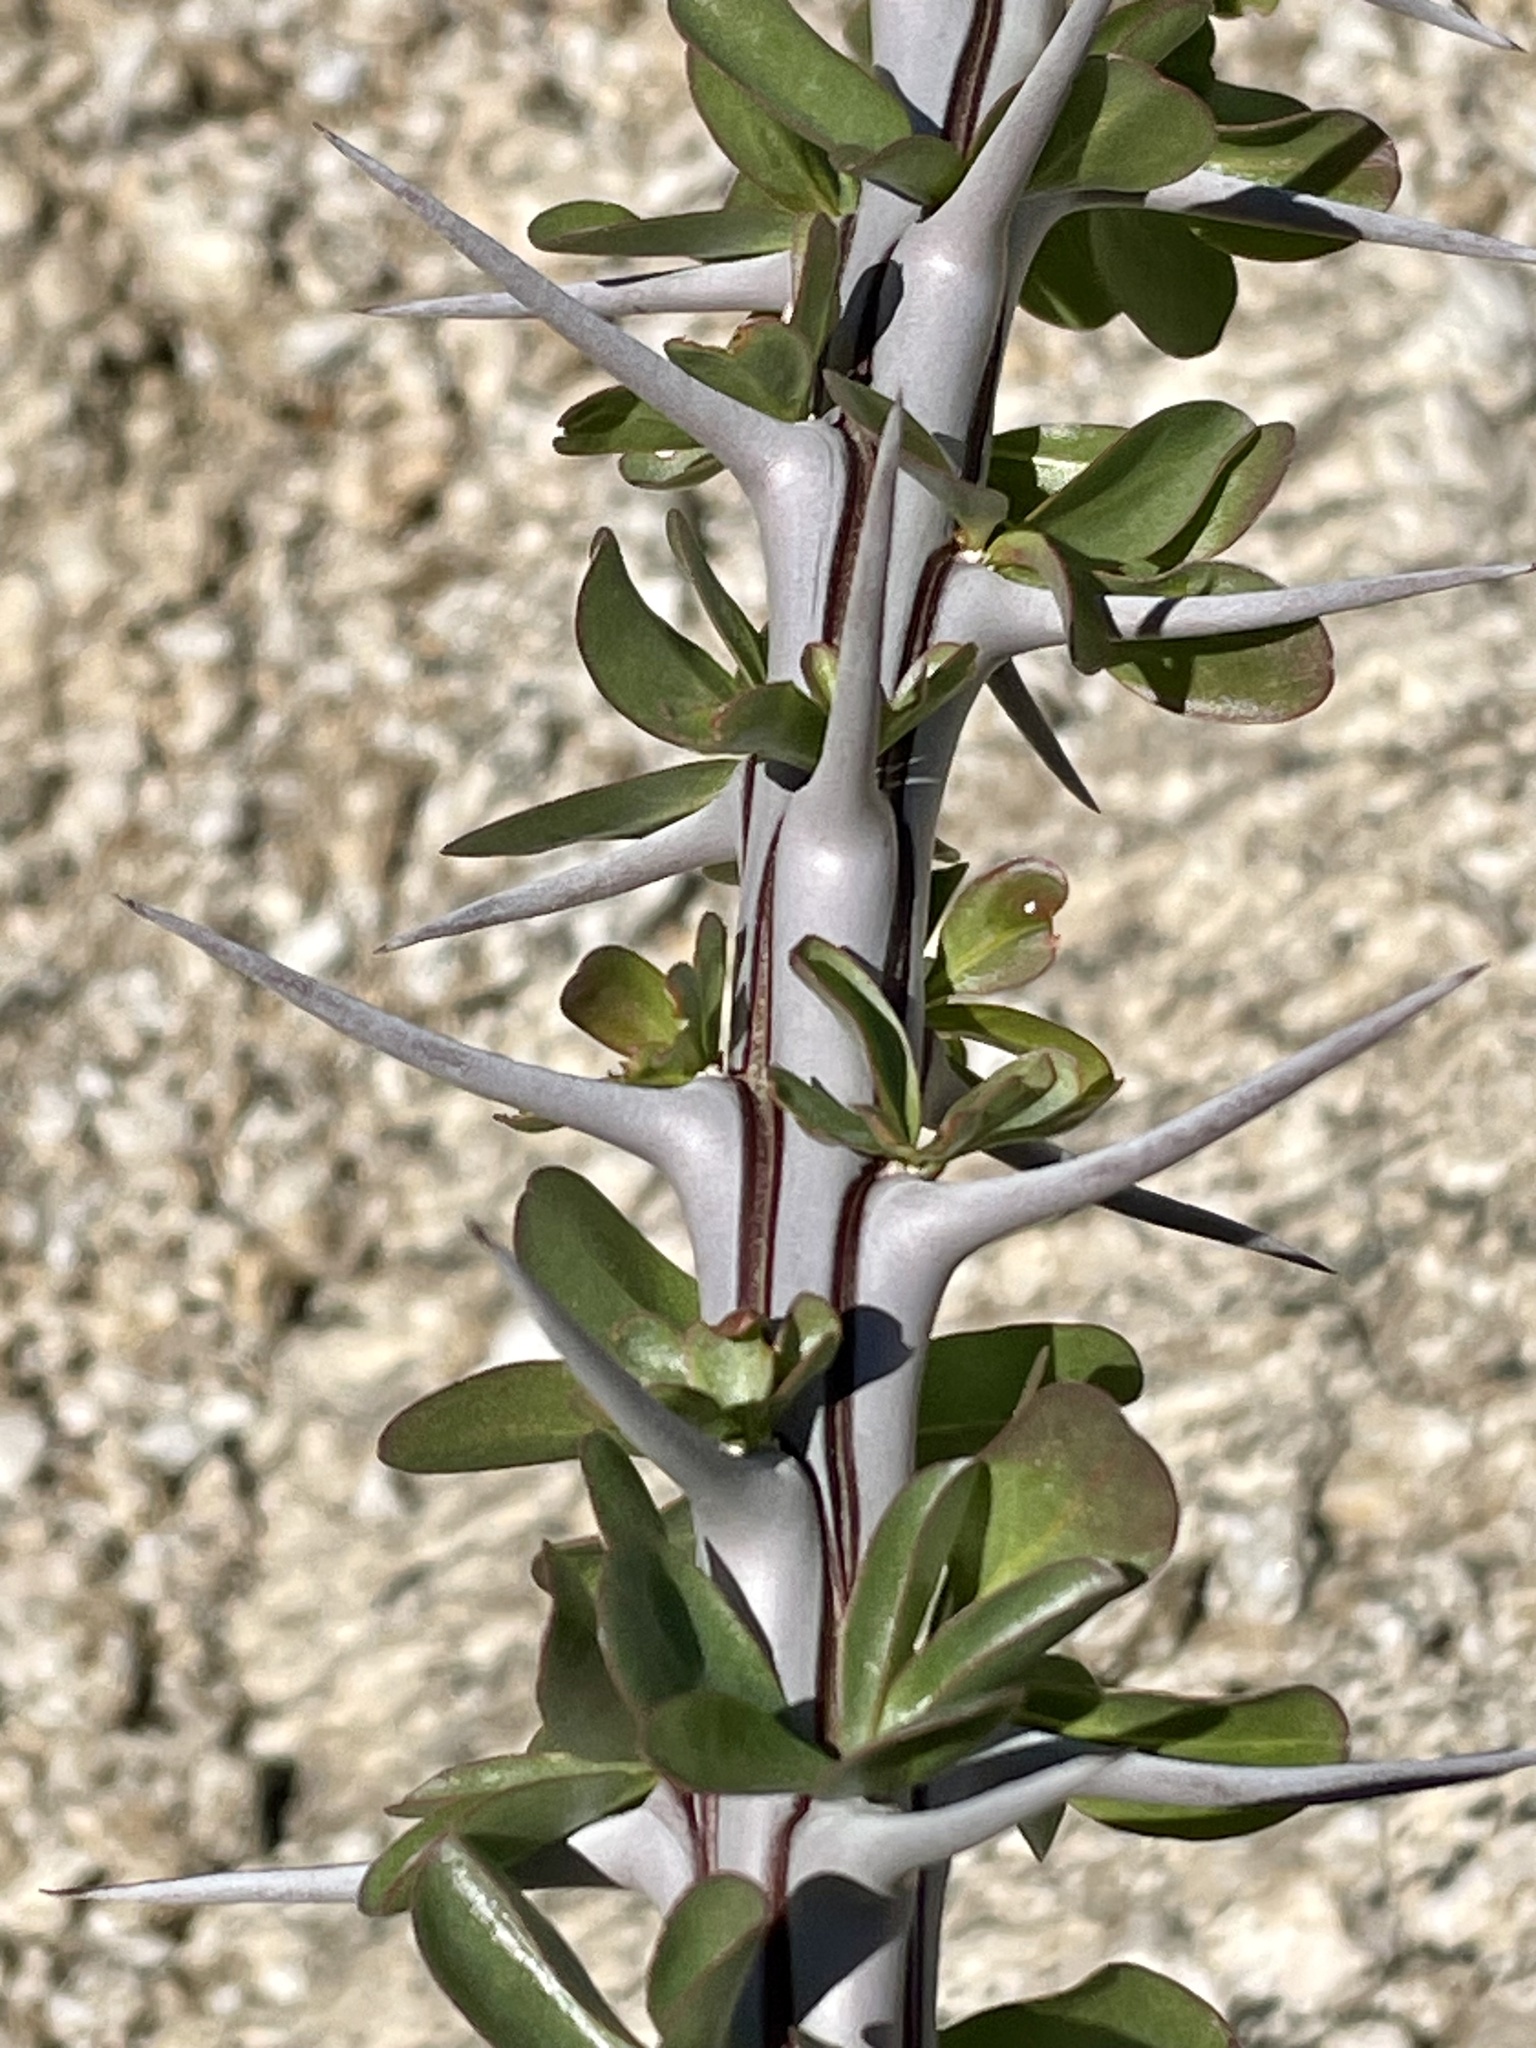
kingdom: Plantae
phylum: Tracheophyta
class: Magnoliopsida
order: Ericales
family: Fouquieriaceae
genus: Fouquieria
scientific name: Fouquieria splendens
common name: Vine-cactus
